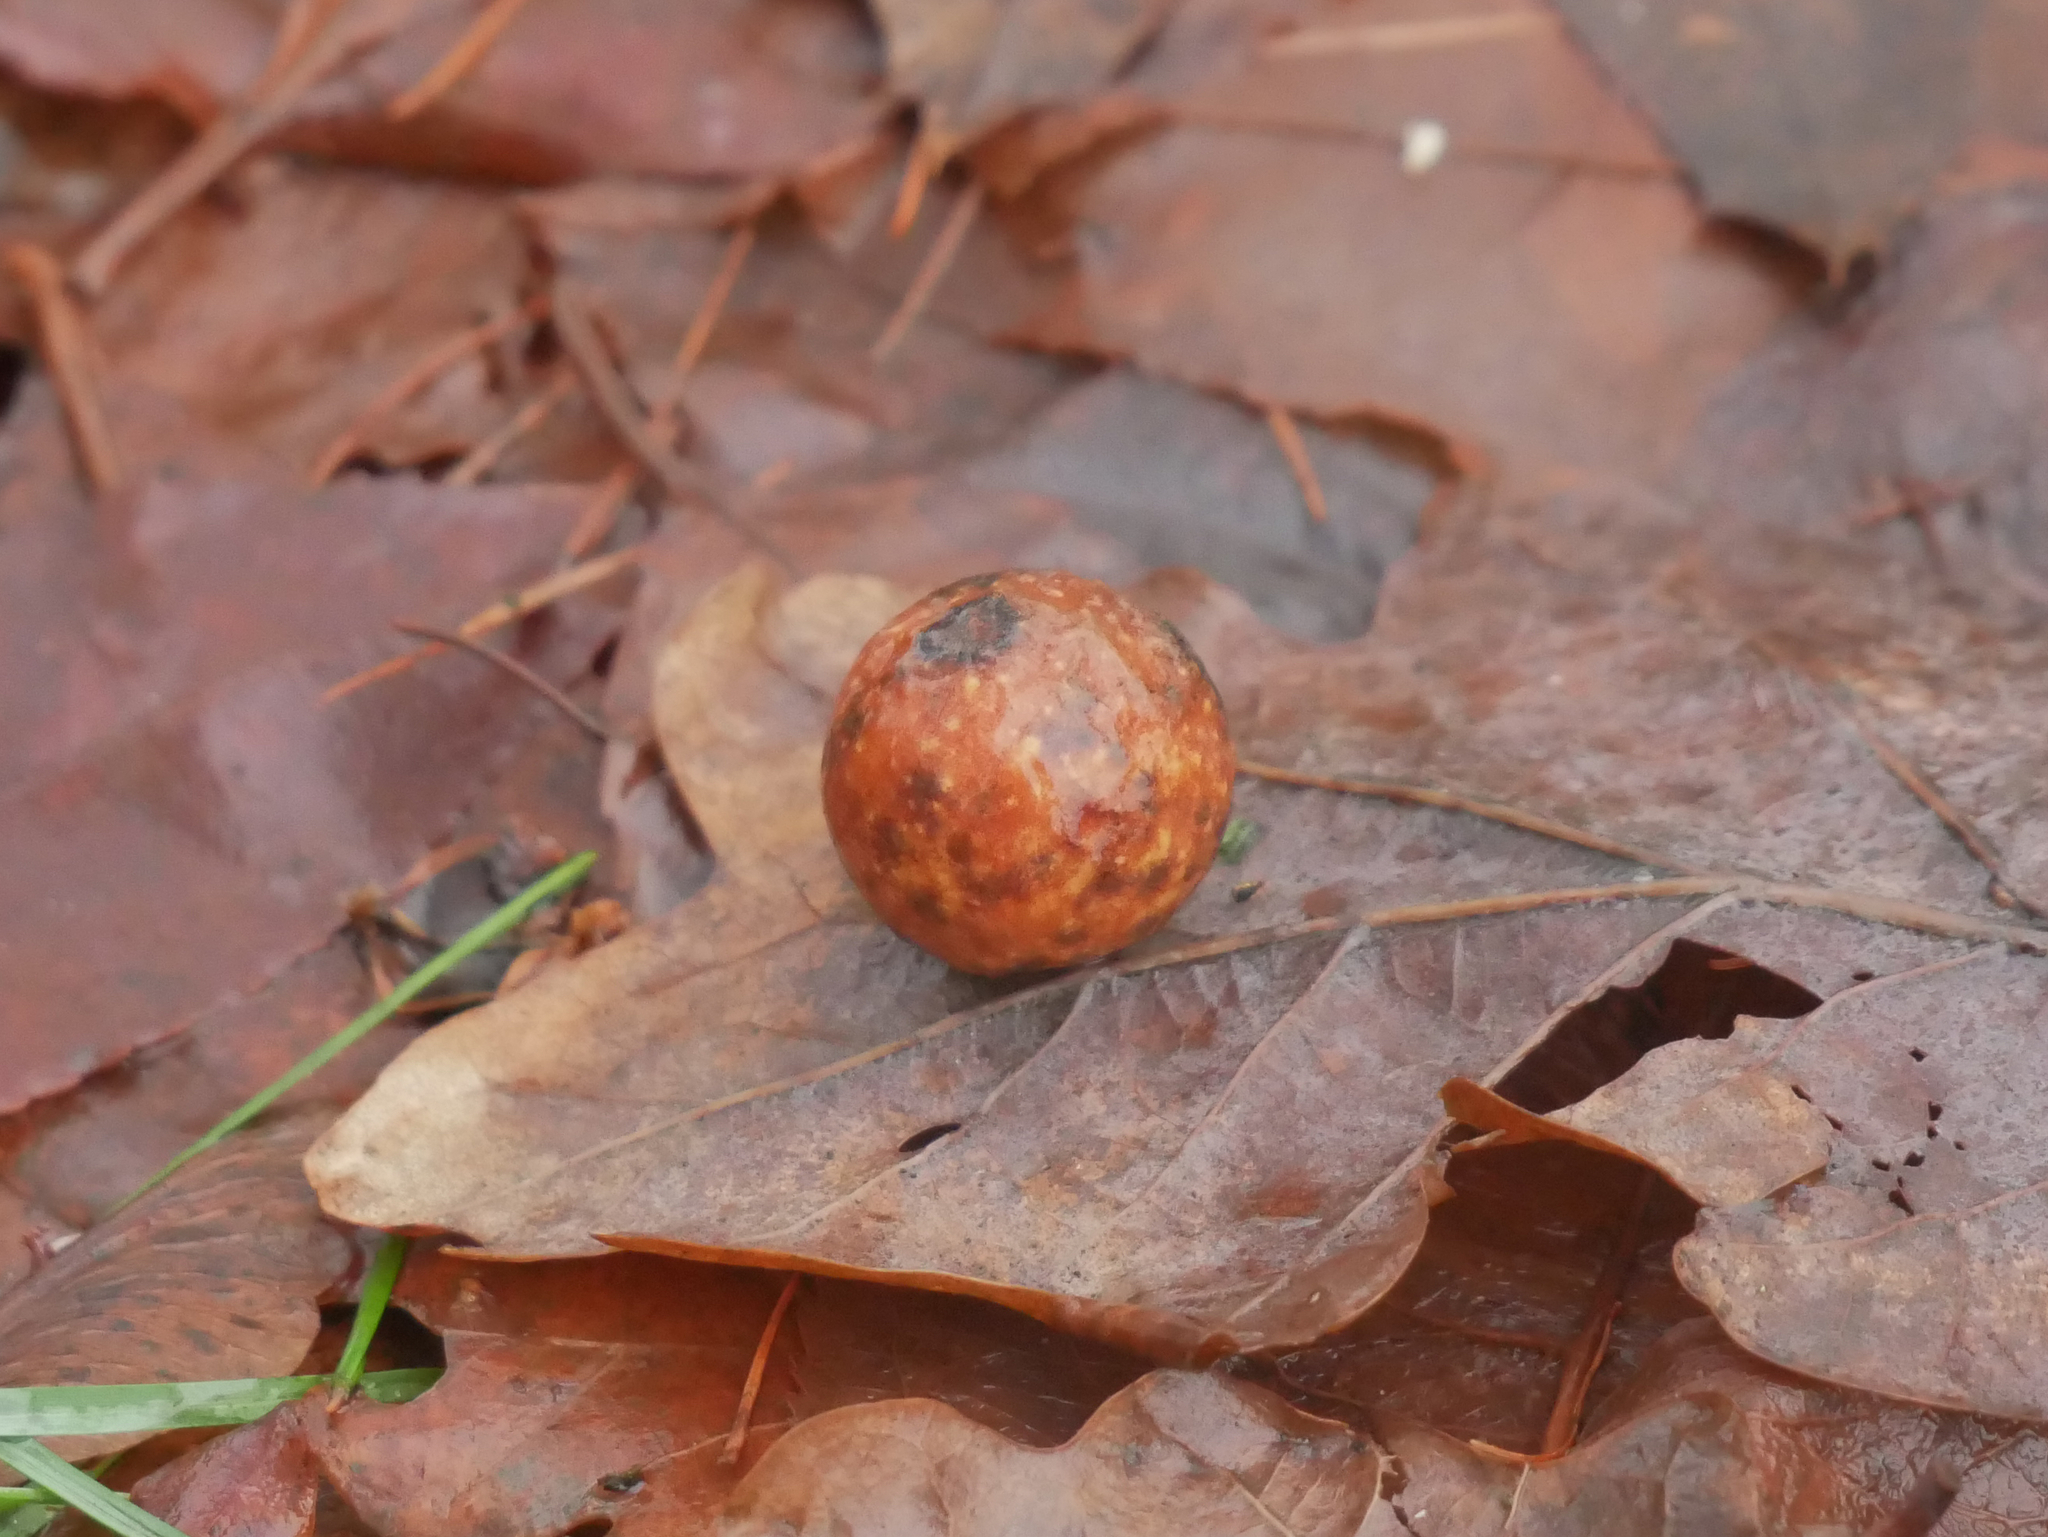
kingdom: Animalia
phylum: Arthropoda
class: Insecta
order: Hymenoptera
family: Cynipidae
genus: Cynips
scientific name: Cynips quercusfolii
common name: Cherry gall
